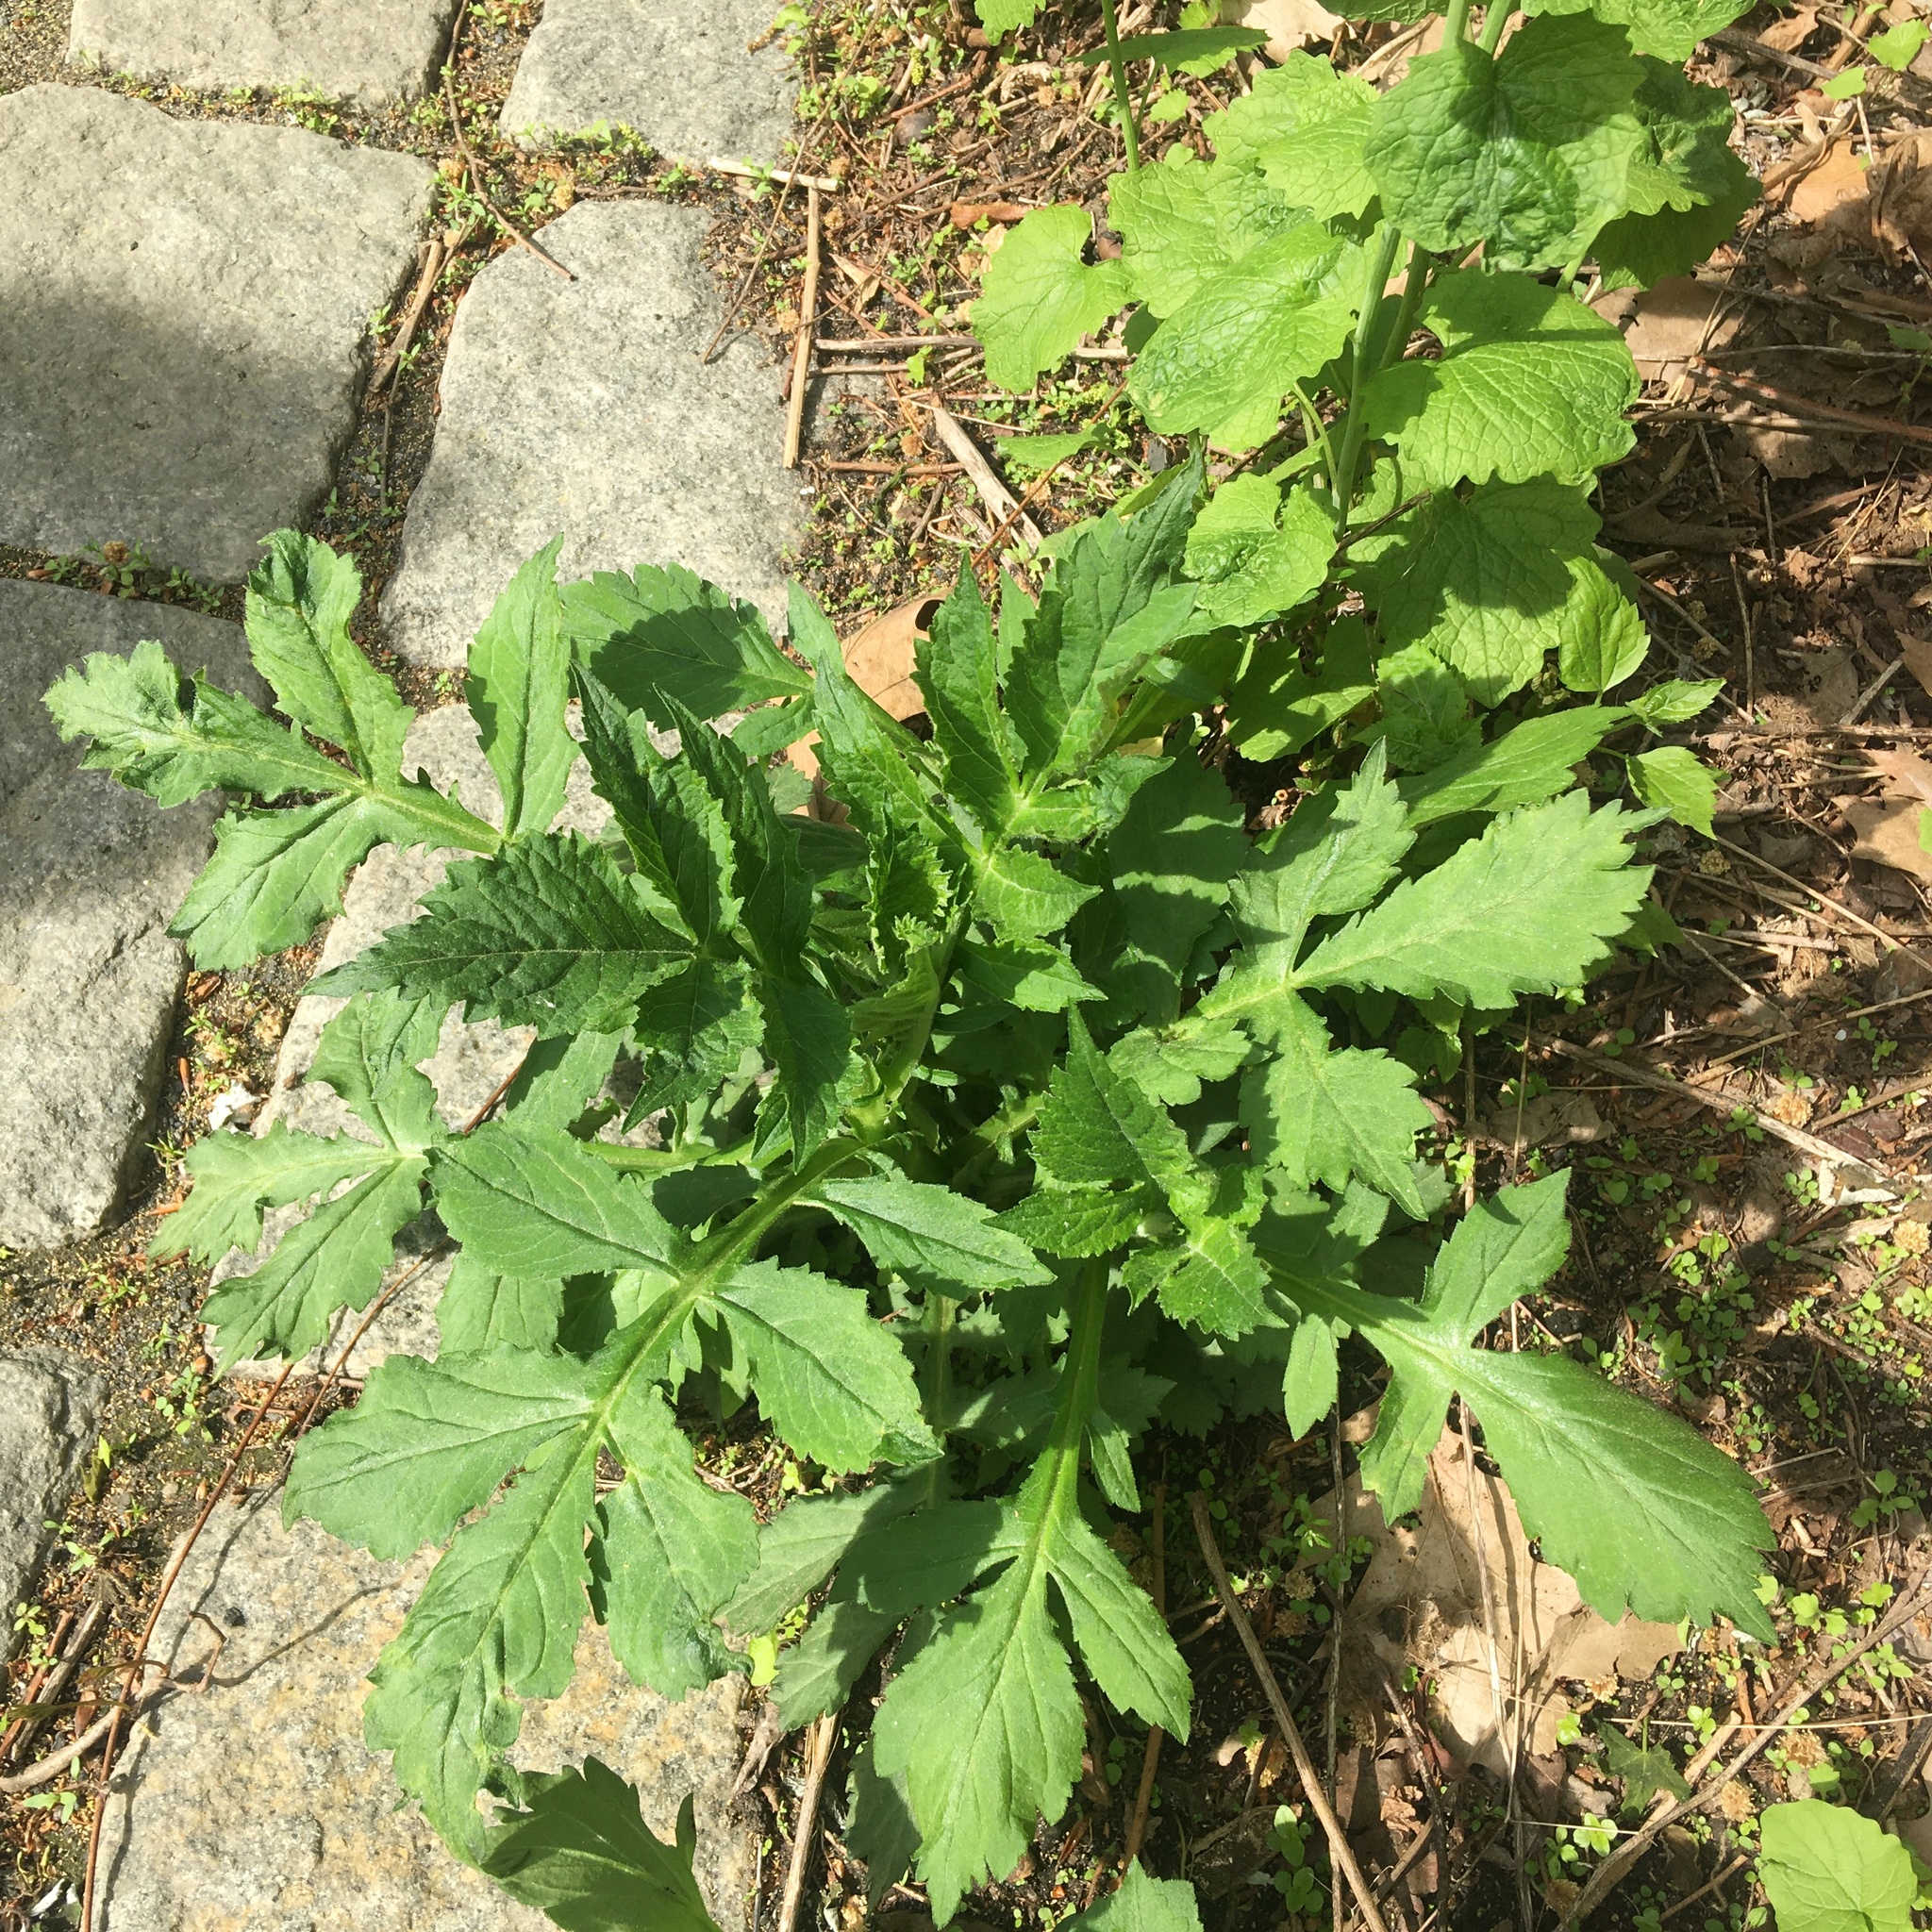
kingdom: Plantae
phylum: Tracheophyta
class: Magnoliopsida
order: Dipsacales
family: Caprifoliaceae
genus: Patrinia
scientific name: Patrinia villosa
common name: Patrinia
